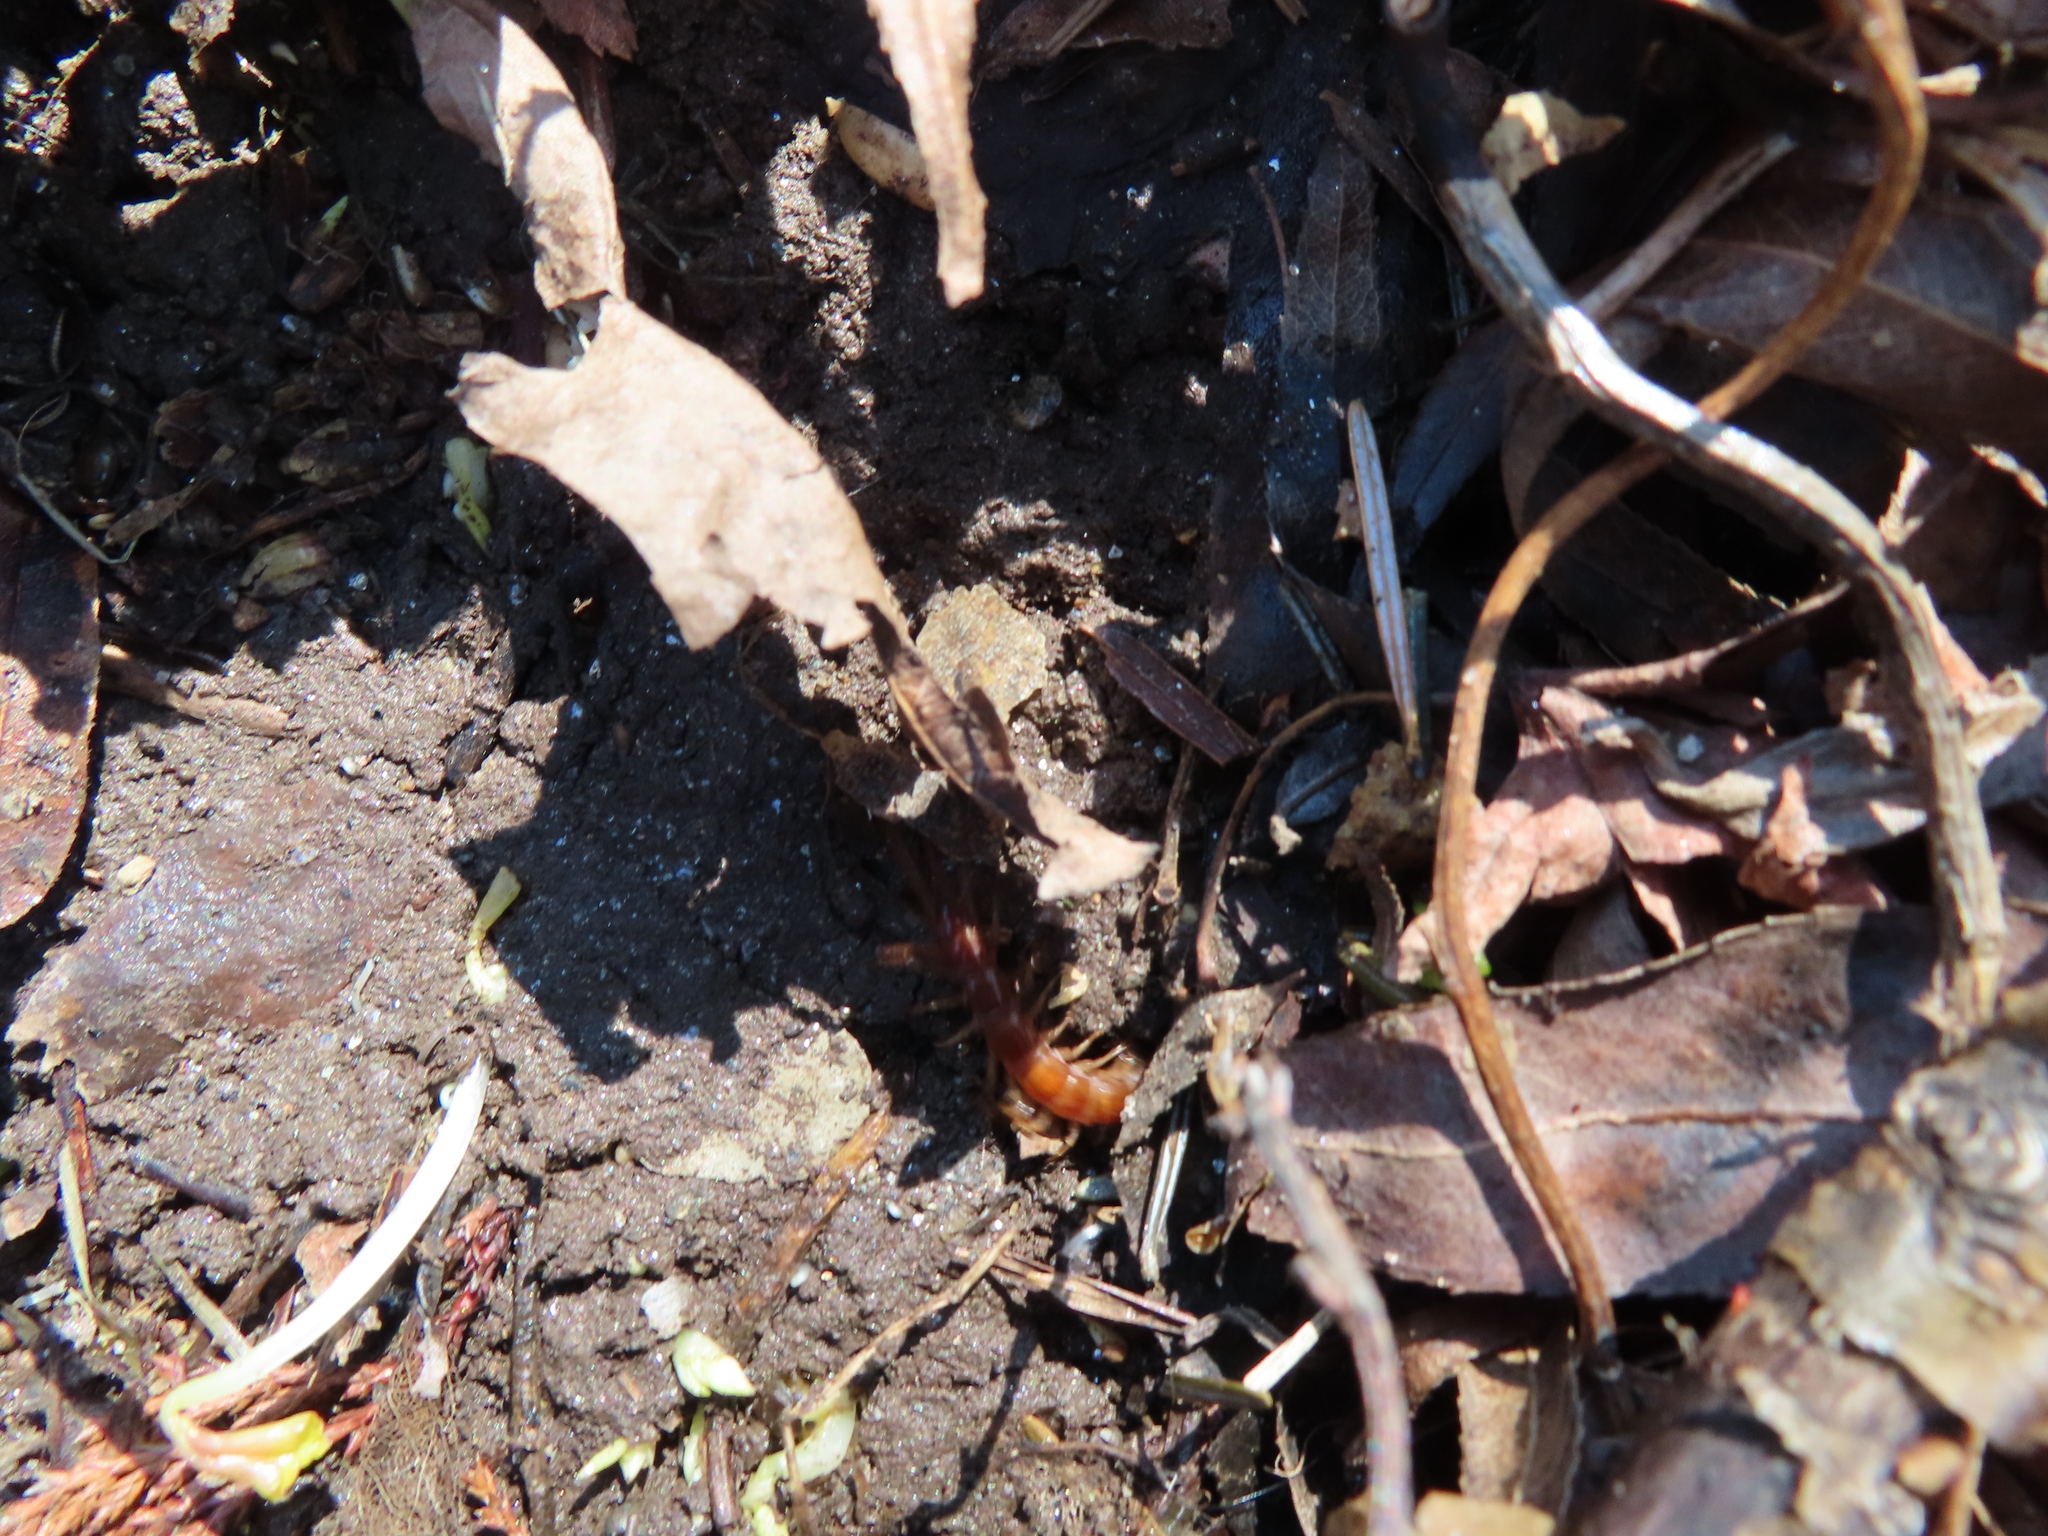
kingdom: Animalia
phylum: Arthropoda
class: Chilopoda
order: Scolopendromorpha
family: Scolopocryptopidae
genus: Scolopocryptops
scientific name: Scolopocryptops sexspinosus
